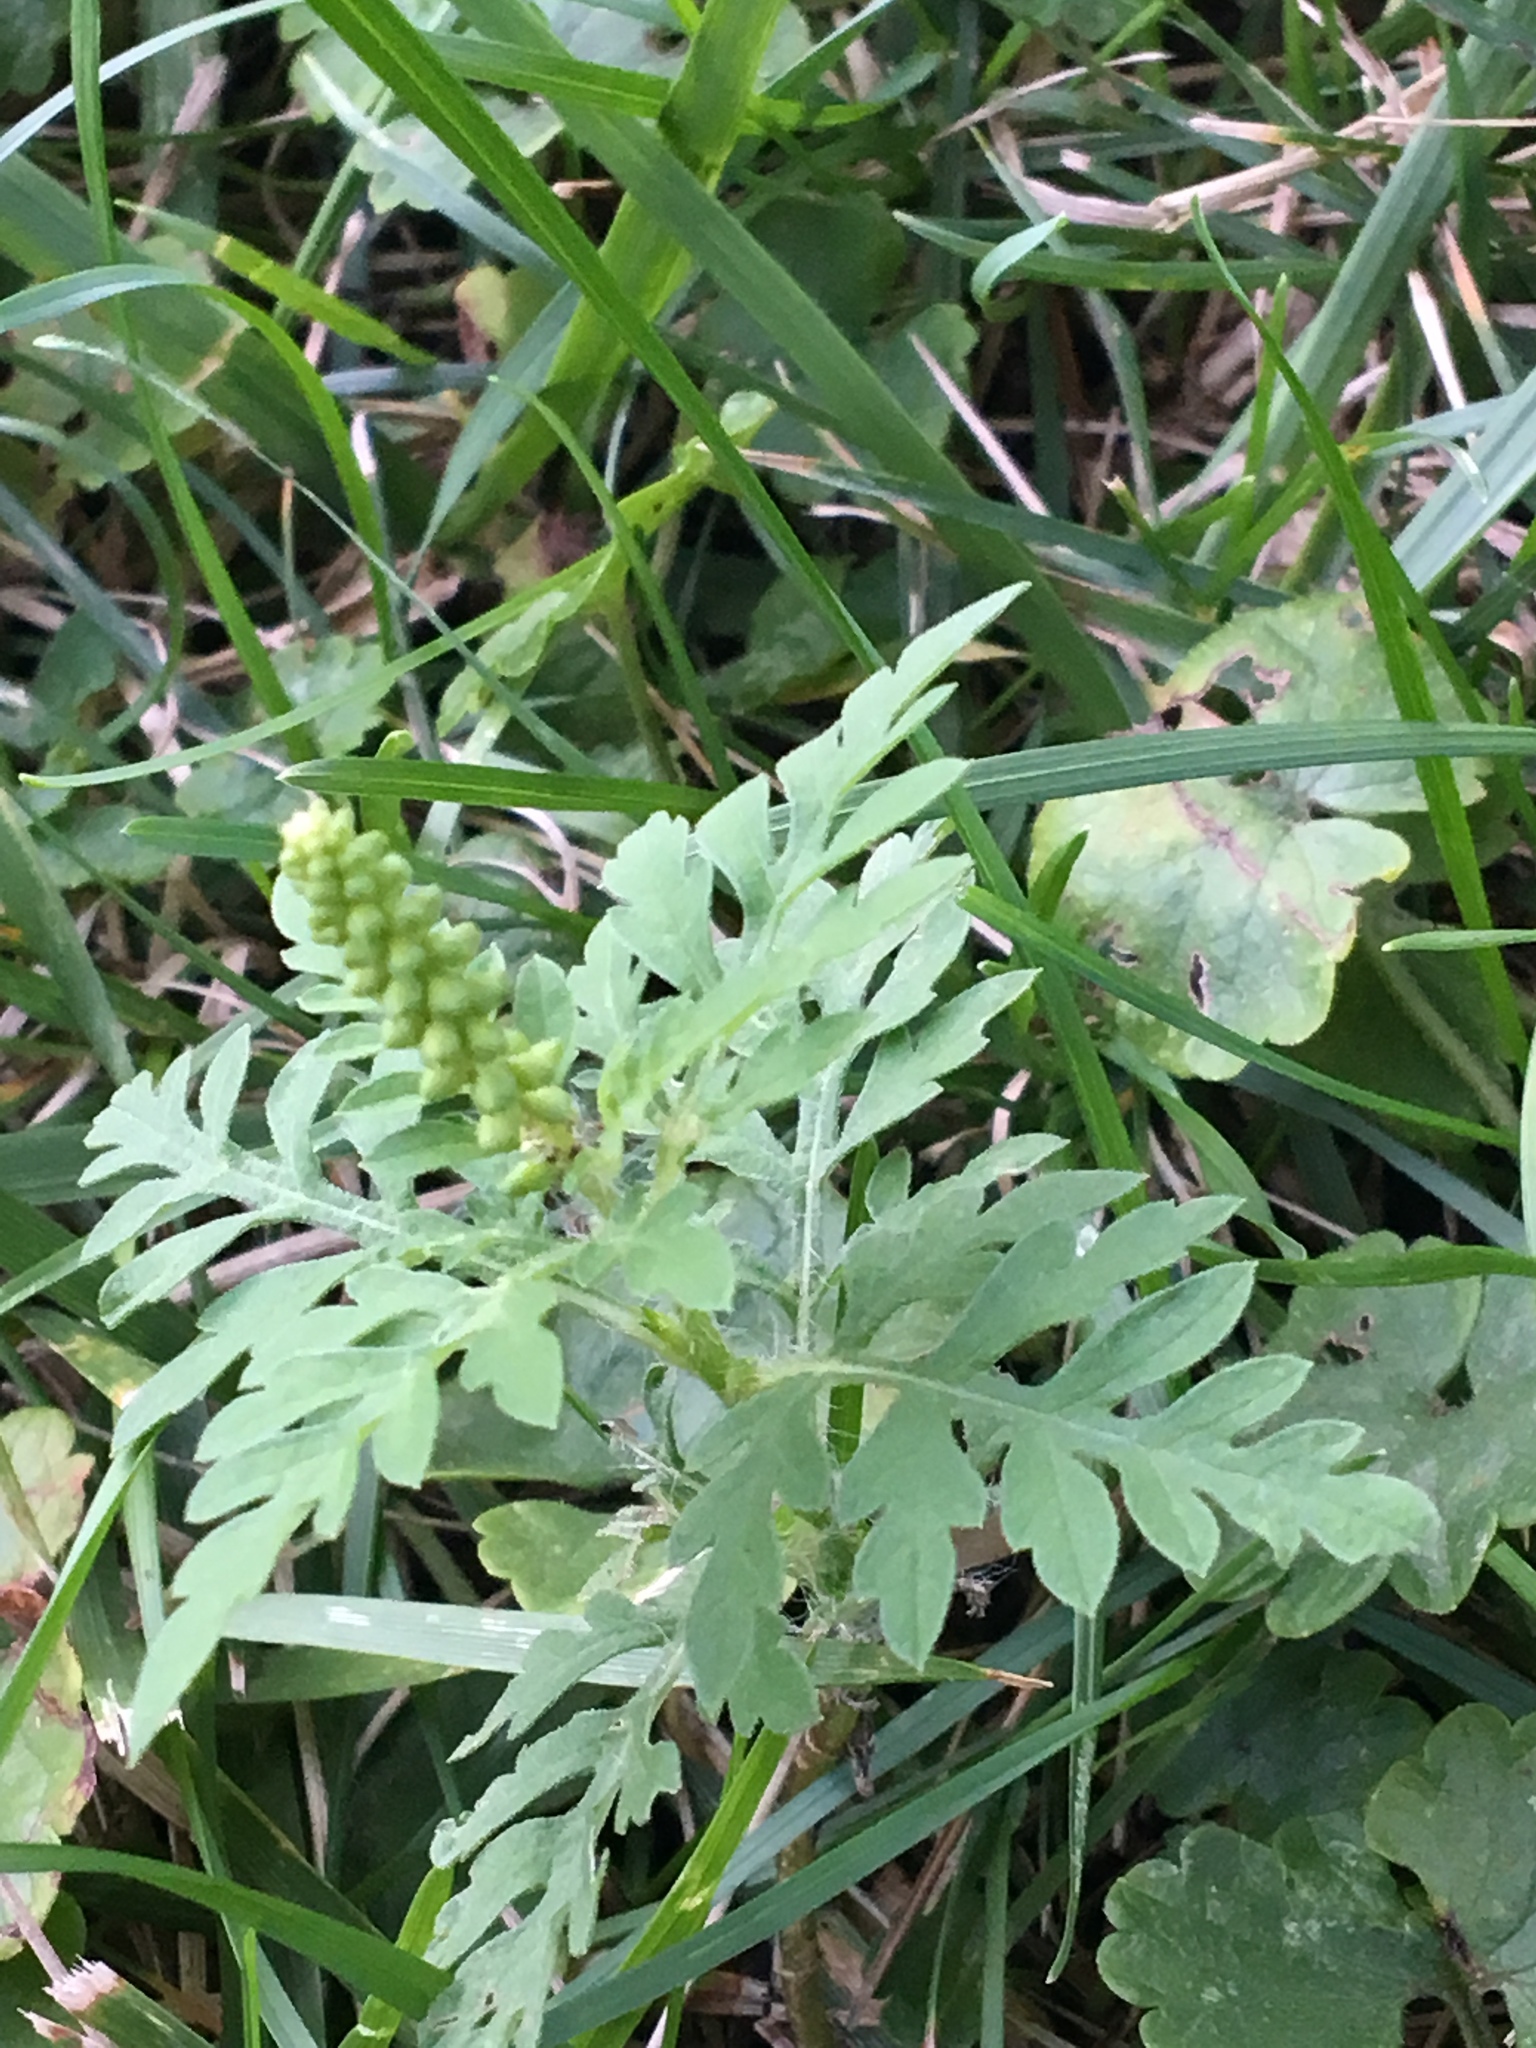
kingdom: Plantae
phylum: Tracheophyta
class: Magnoliopsida
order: Asterales
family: Asteraceae
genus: Ambrosia
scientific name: Ambrosia artemisiifolia
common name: Annual ragweed
